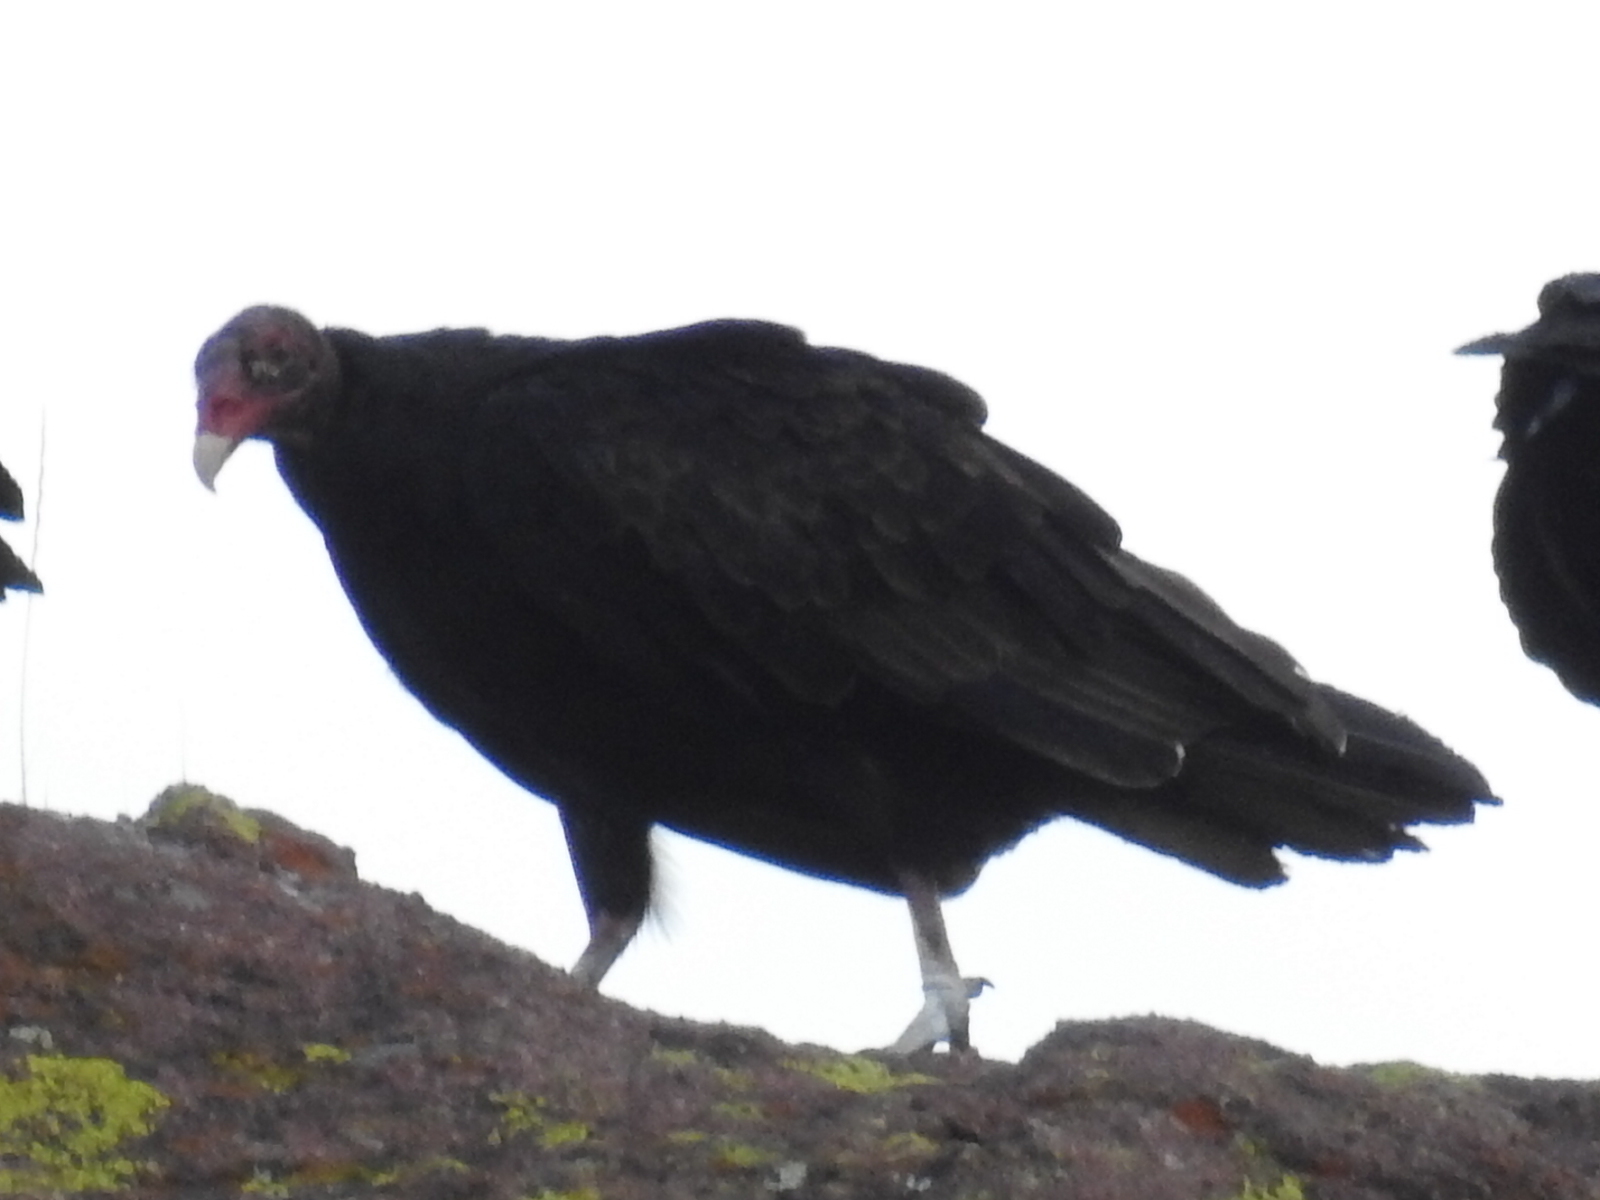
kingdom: Animalia
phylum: Chordata
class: Aves
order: Accipitriformes
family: Cathartidae
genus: Cathartes
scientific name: Cathartes aura
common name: Turkey vulture
